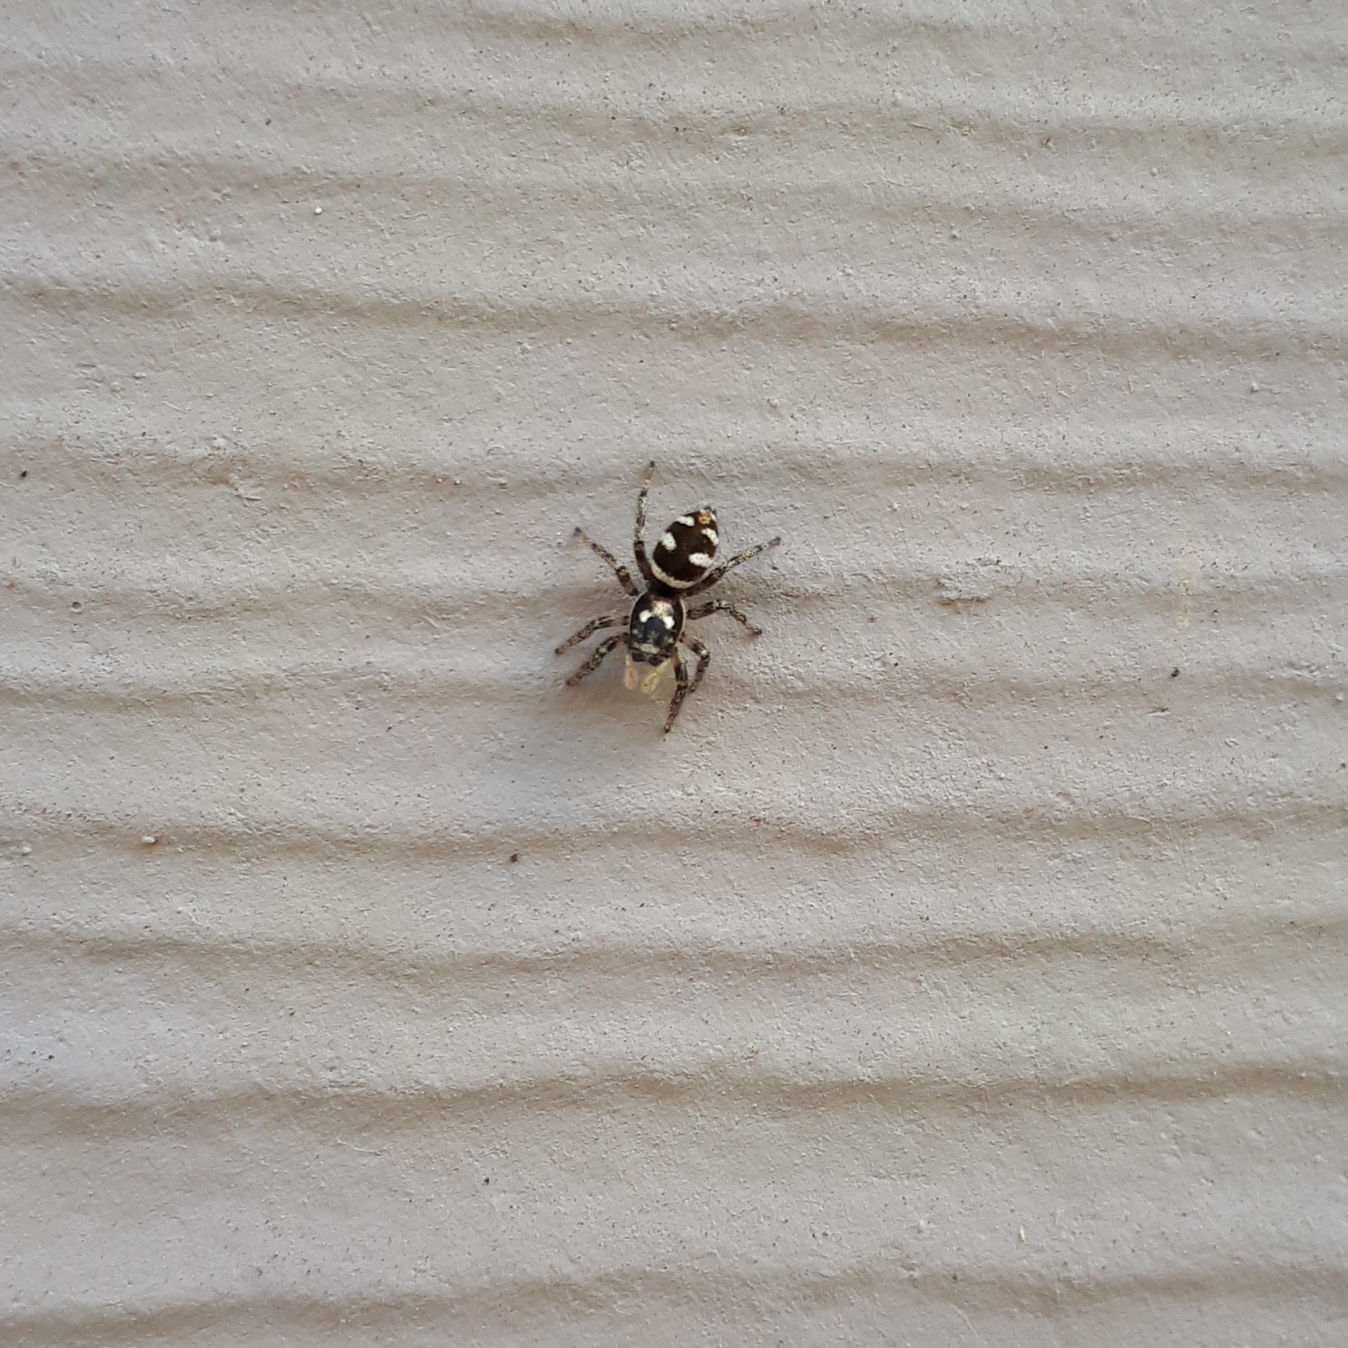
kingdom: Animalia
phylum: Arthropoda
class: Arachnida
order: Araneae
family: Salticidae
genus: Salticus
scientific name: Salticus scenicus
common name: Zebra jumper
